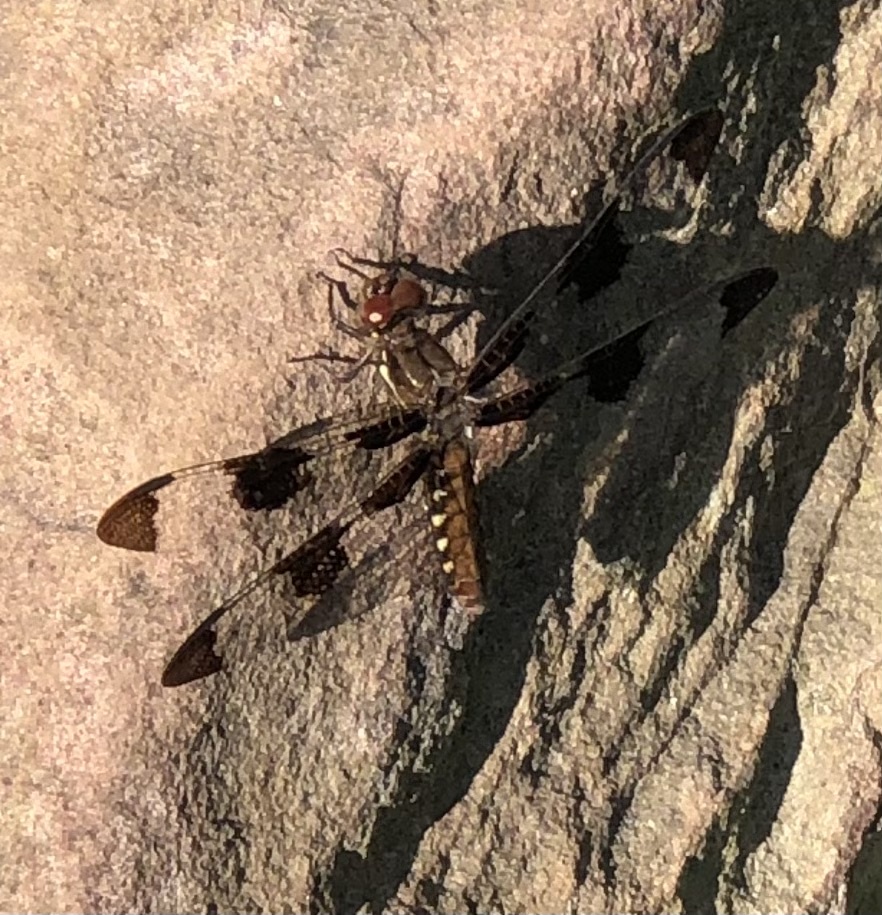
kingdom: Animalia
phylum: Arthropoda
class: Insecta
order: Odonata
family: Libellulidae
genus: Plathemis
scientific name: Plathemis lydia
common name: Common whitetail
